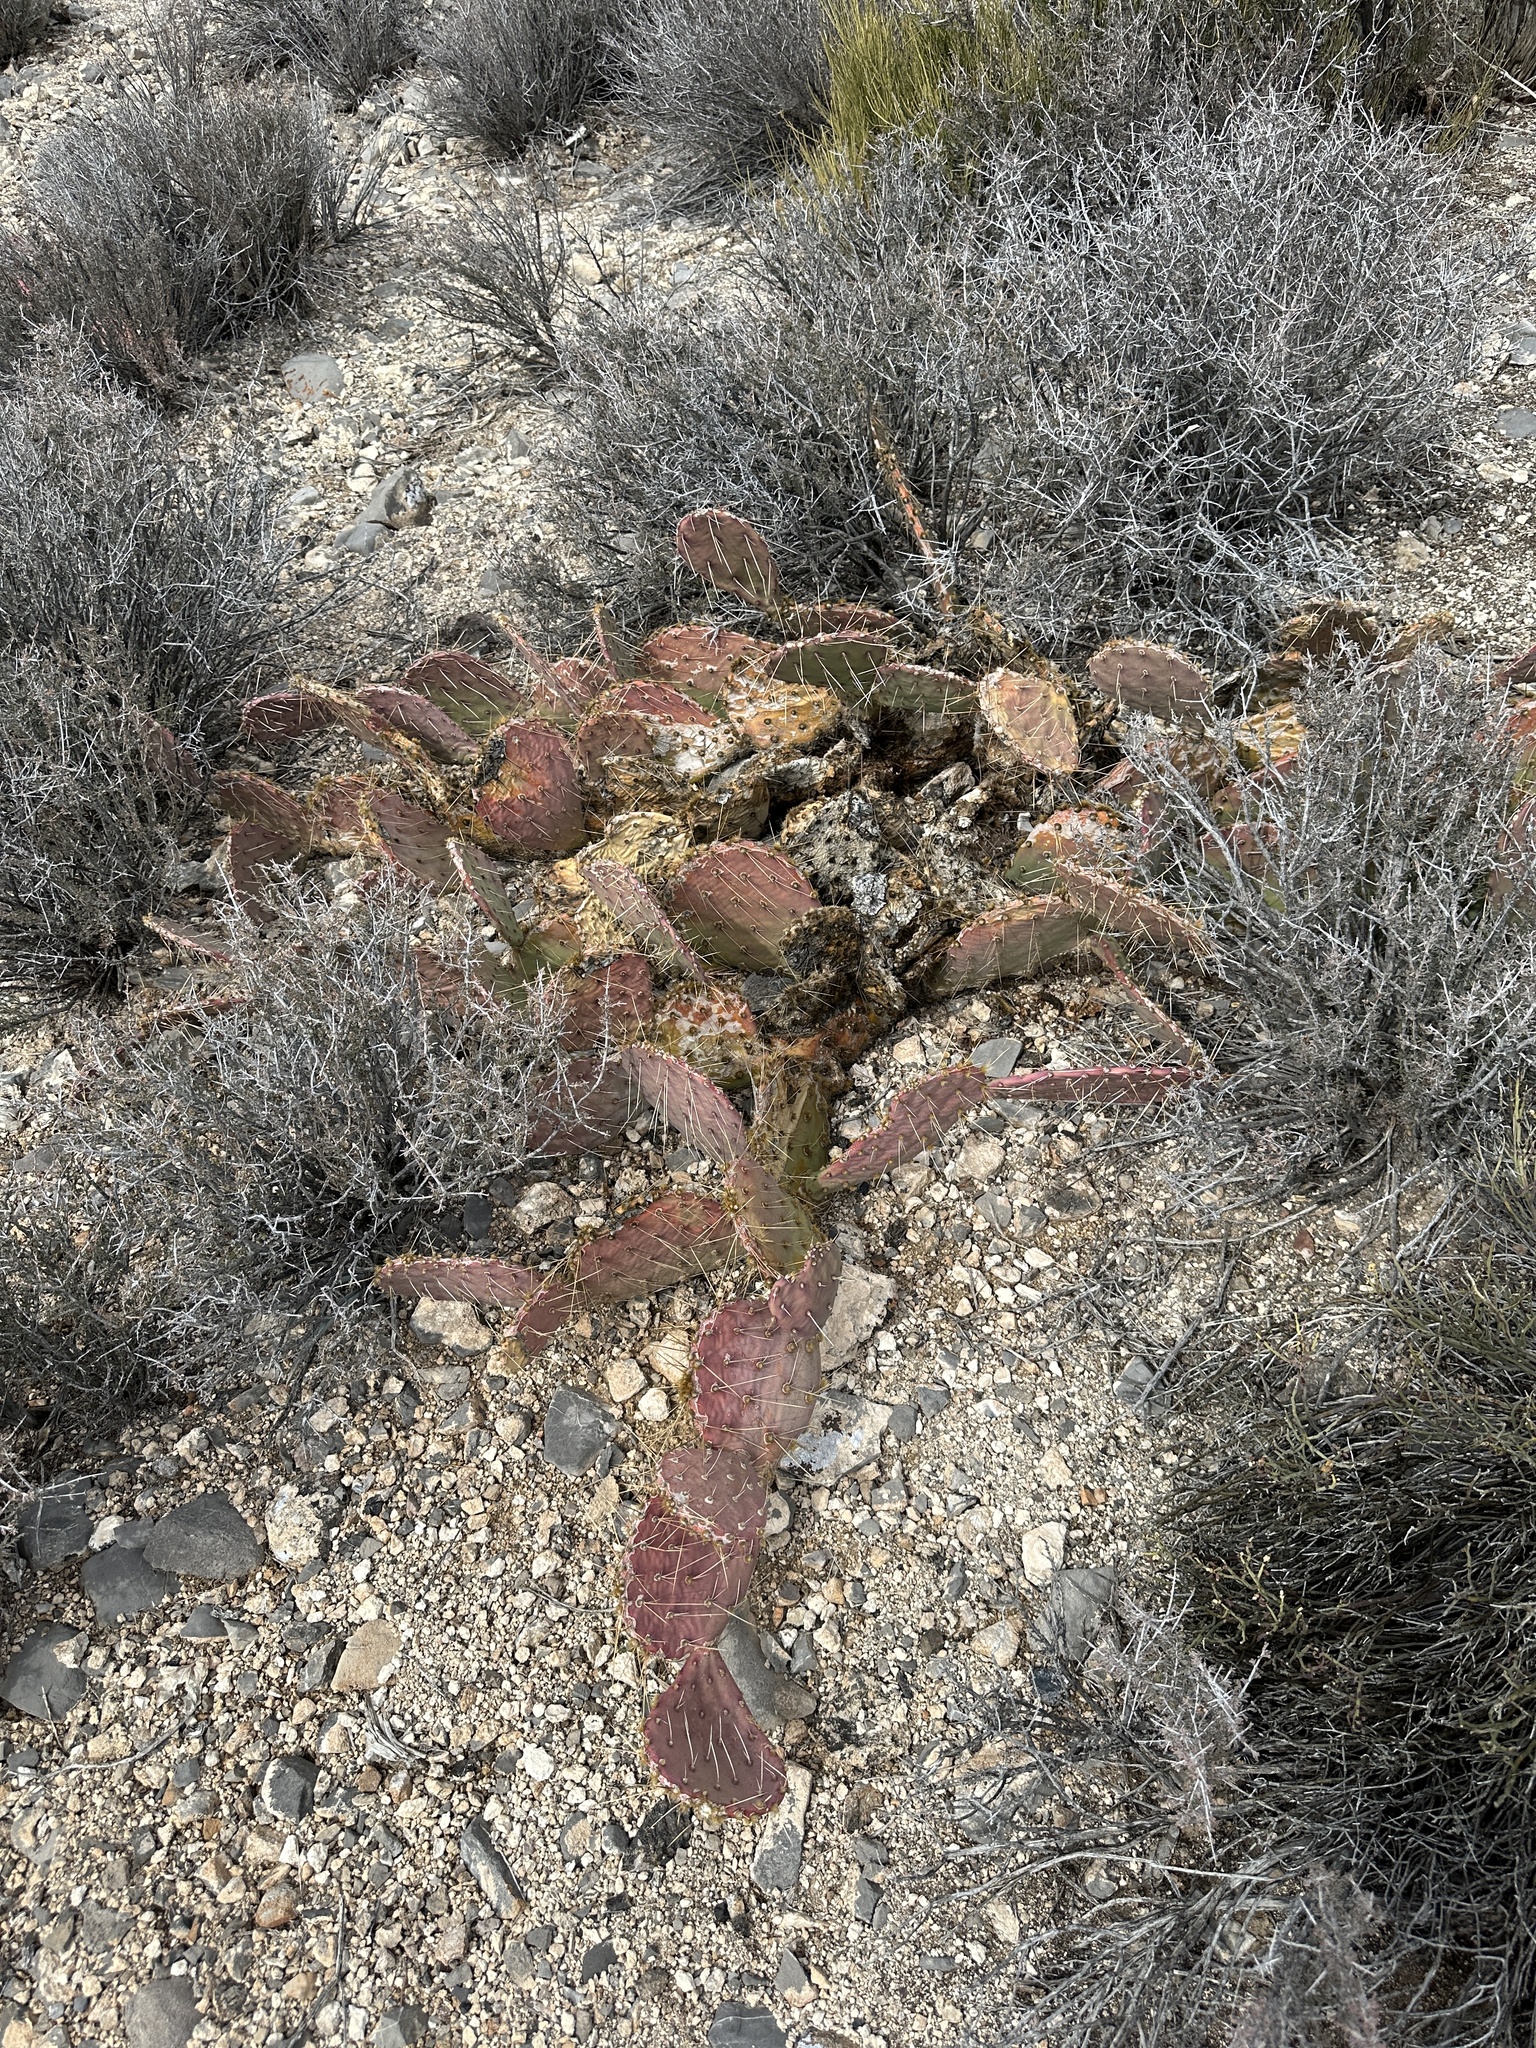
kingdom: Plantae
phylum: Tracheophyta
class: Magnoliopsida
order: Caryophyllales
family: Cactaceae
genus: Opuntia
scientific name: Opuntia phaeacantha
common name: New mexico prickly-pear
